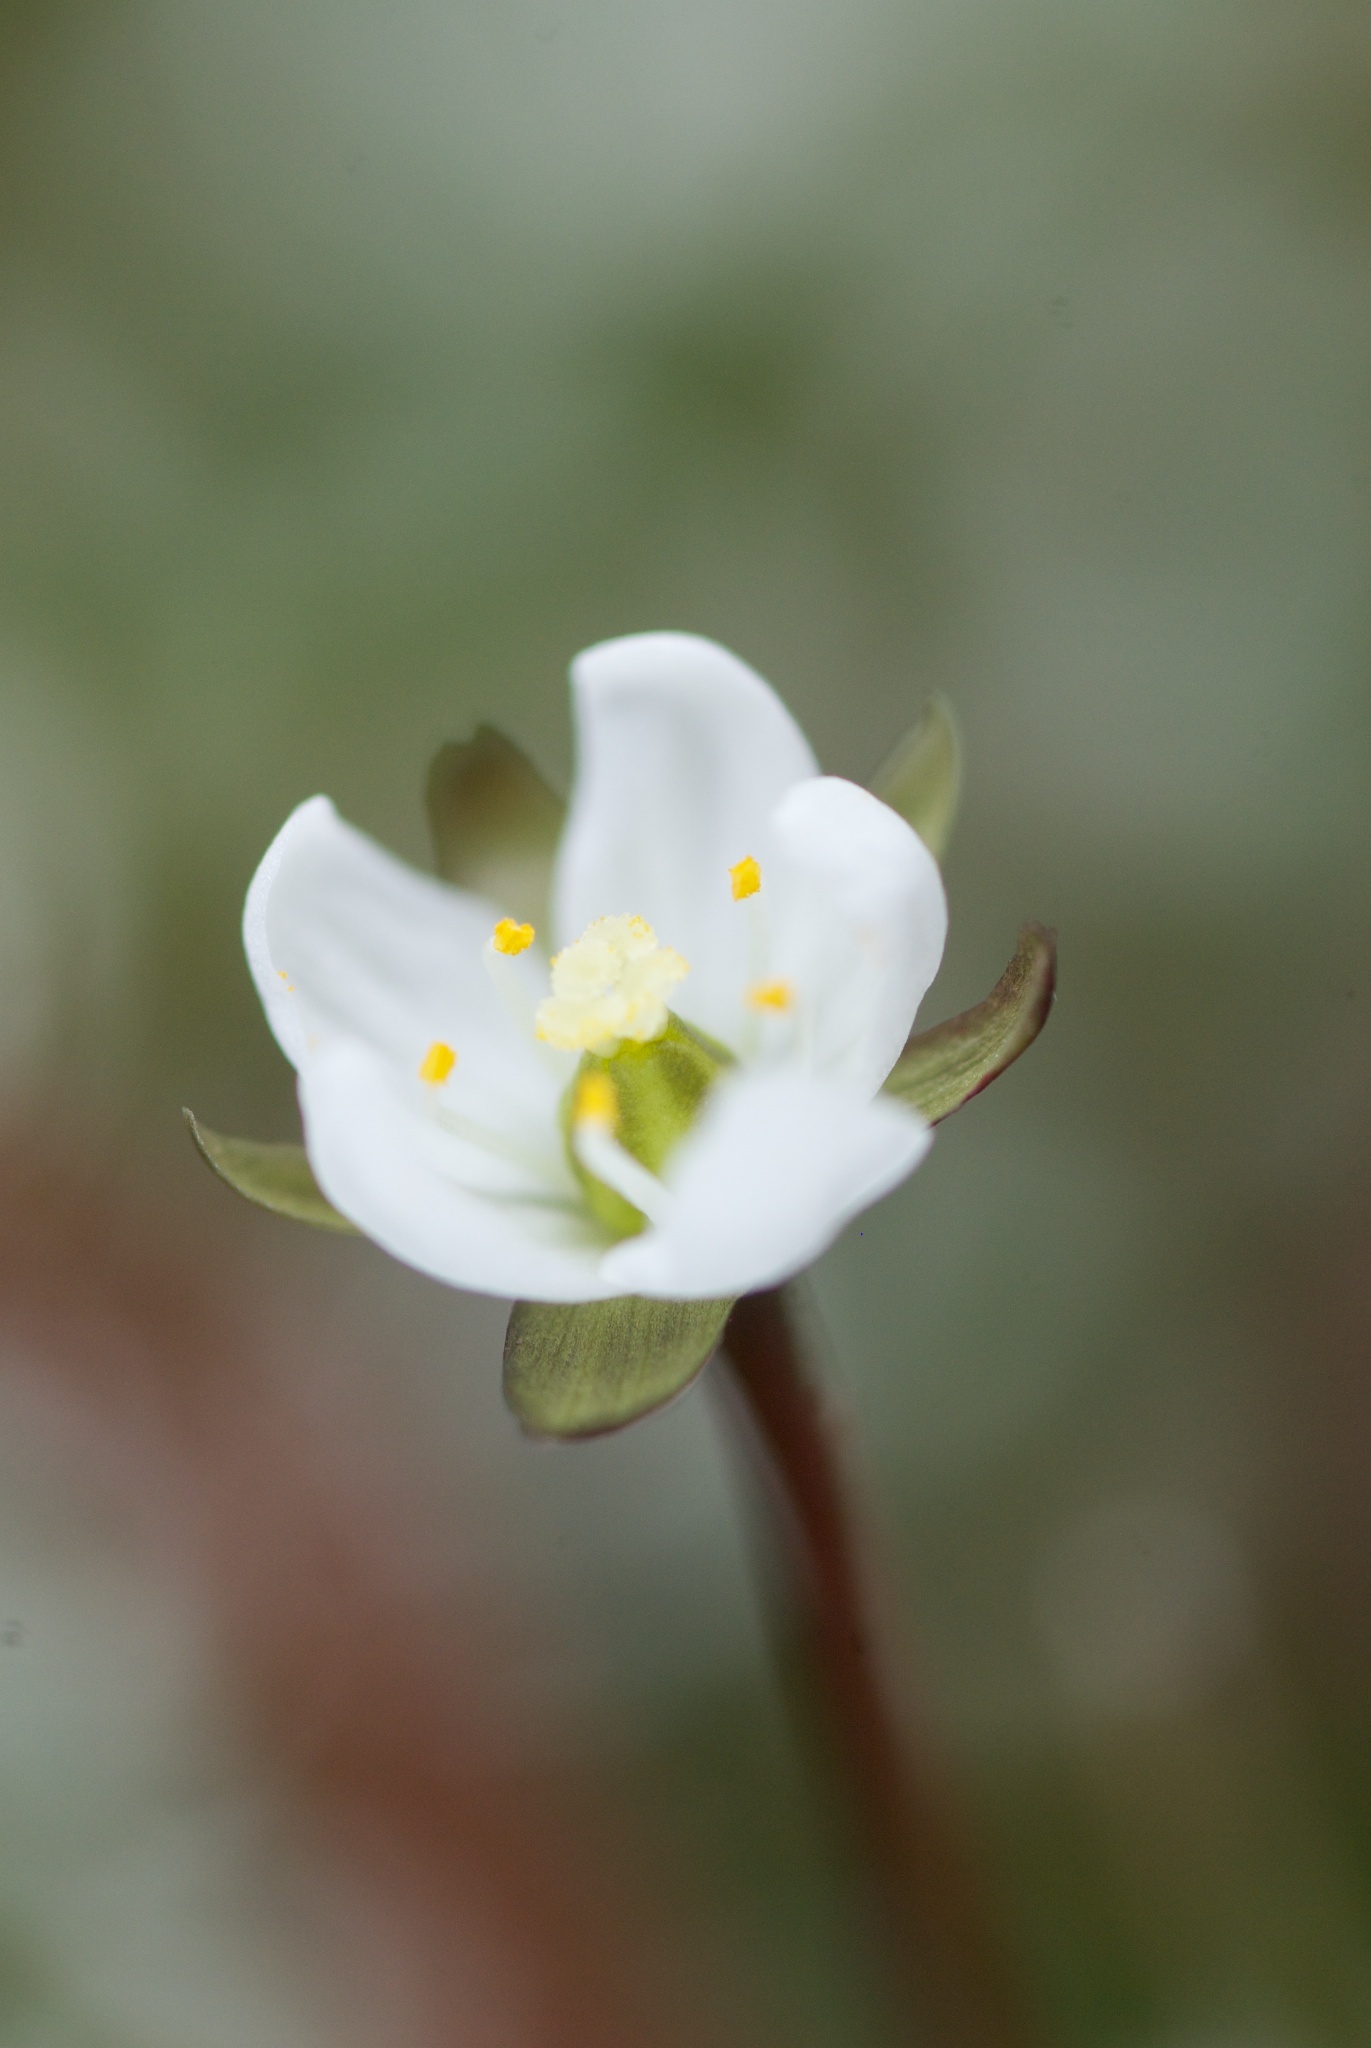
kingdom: Plantae
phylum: Tracheophyta
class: Magnoliopsida
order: Caryophyllales
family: Droseraceae
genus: Drosera
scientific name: Drosera arcturi
